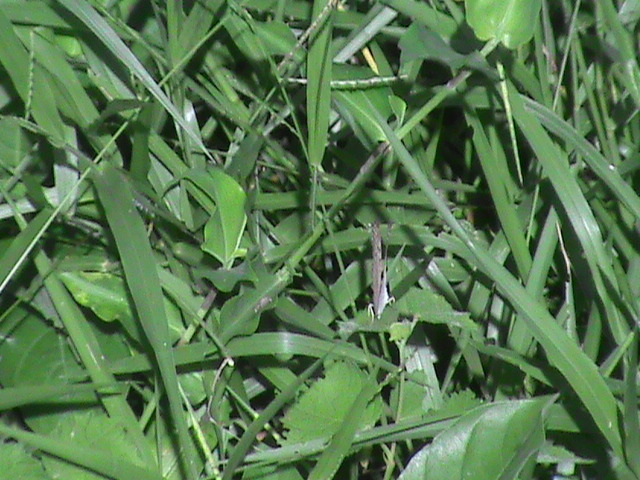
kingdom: Animalia
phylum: Arthropoda
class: Insecta
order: Lepidoptera
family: Nymphalidae
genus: Junonia
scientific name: Junonia atlites
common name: Grey pansy
